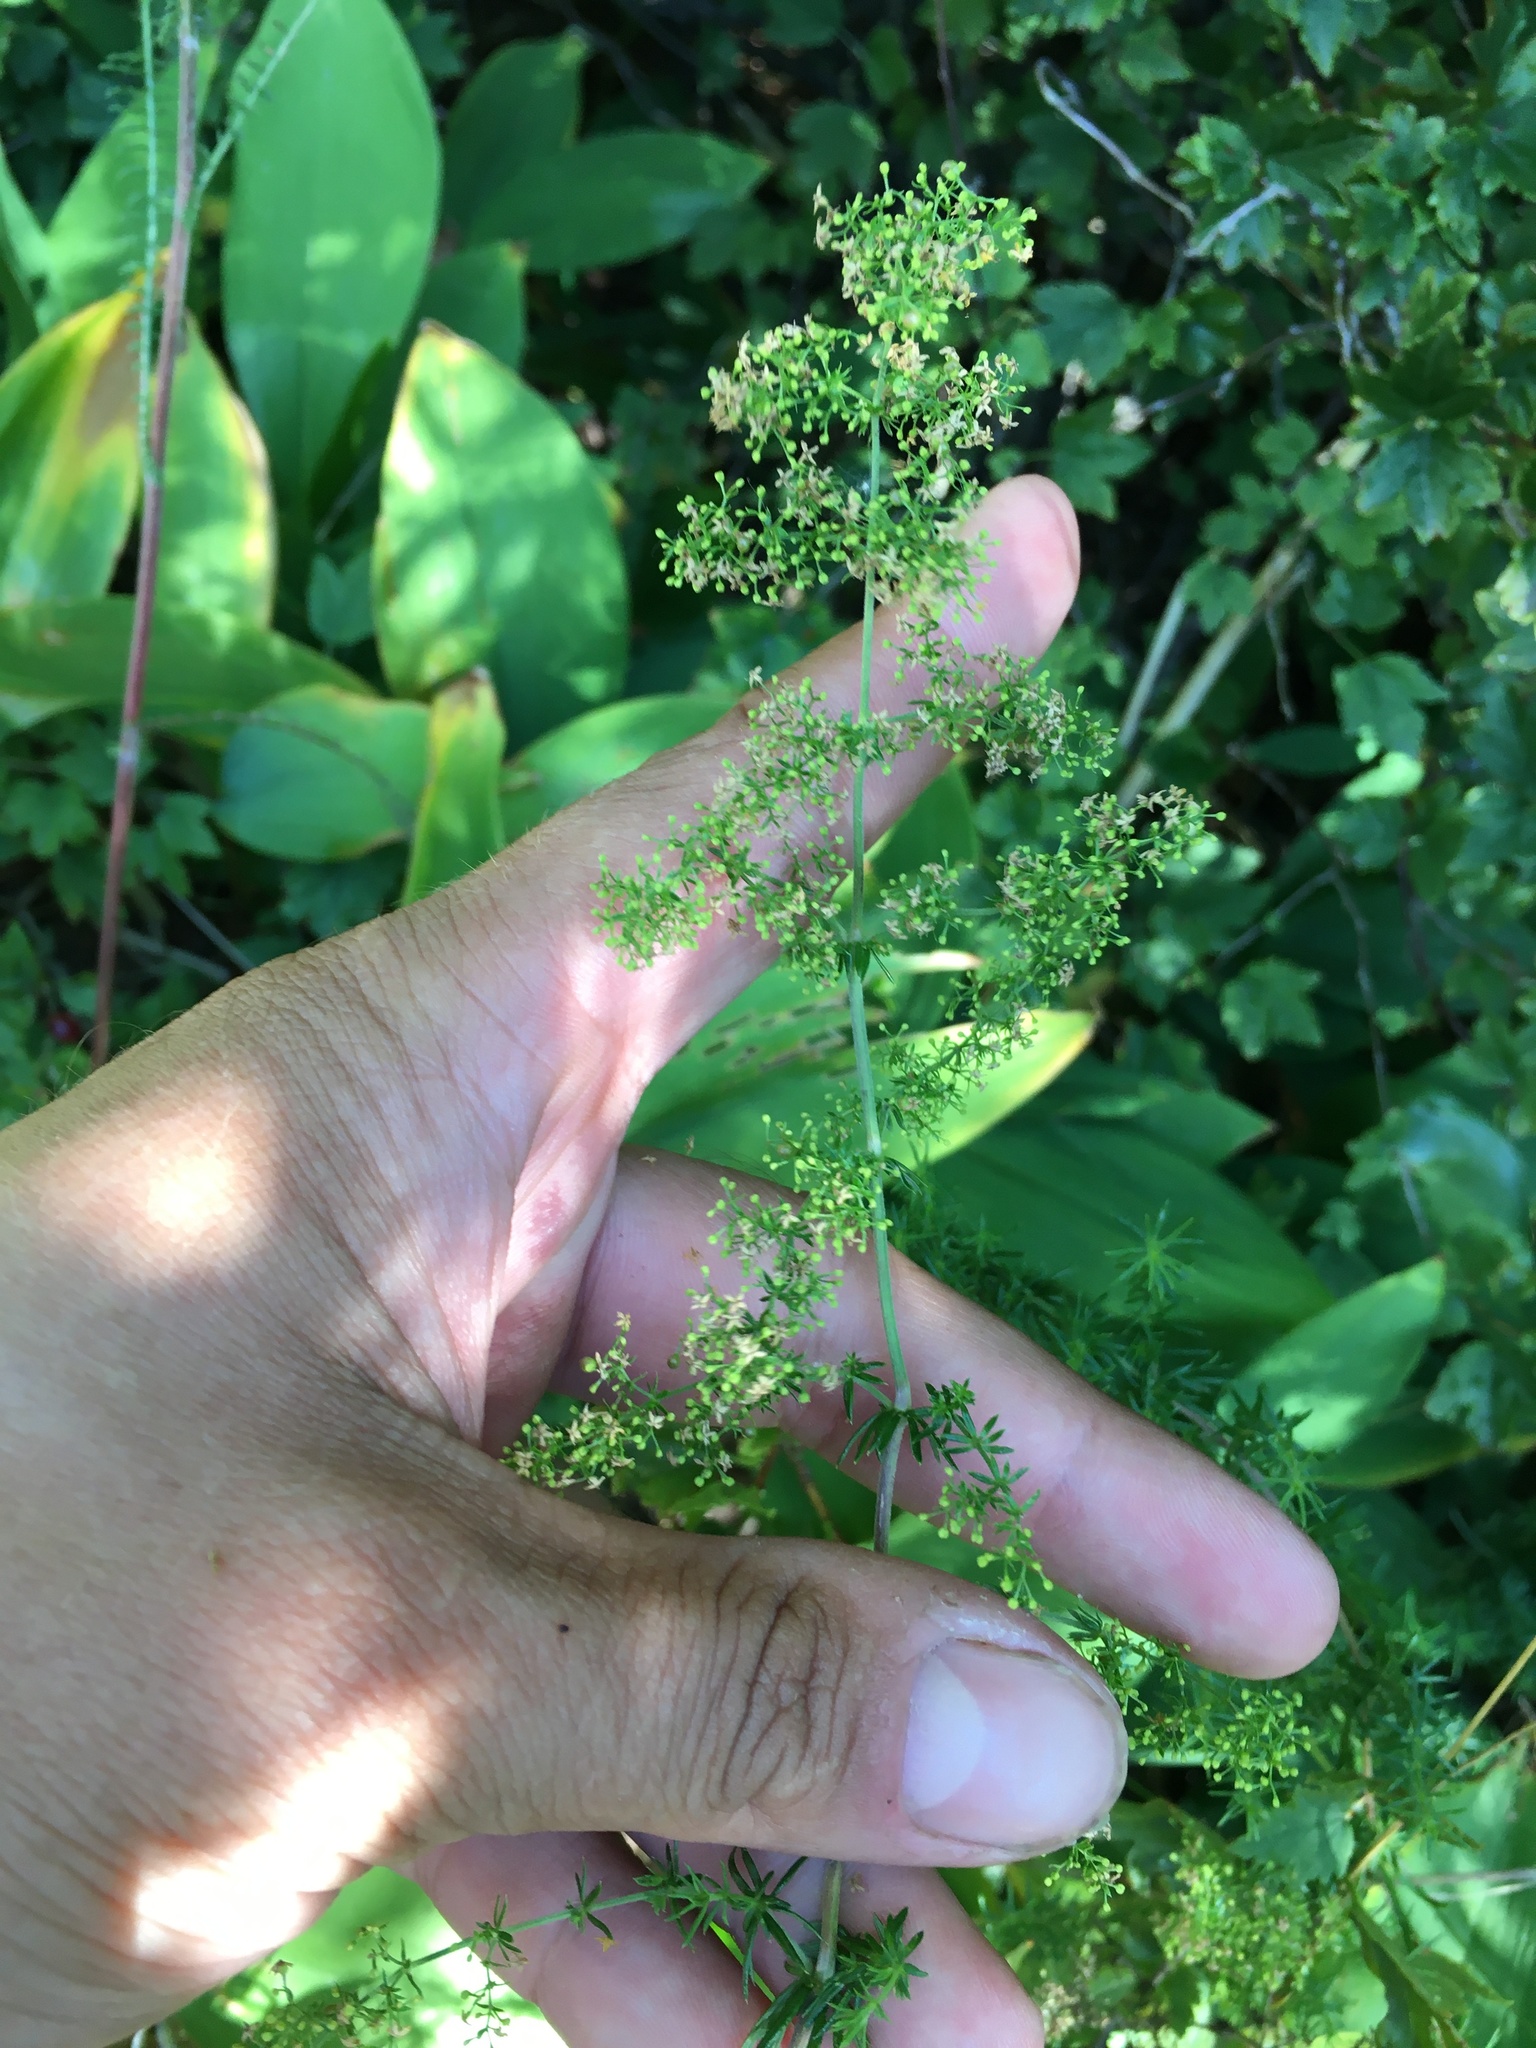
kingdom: Plantae
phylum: Tracheophyta
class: Magnoliopsida
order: Gentianales
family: Rubiaceae
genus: Galium
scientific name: Galium mollugo
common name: Hedge bedstraw
